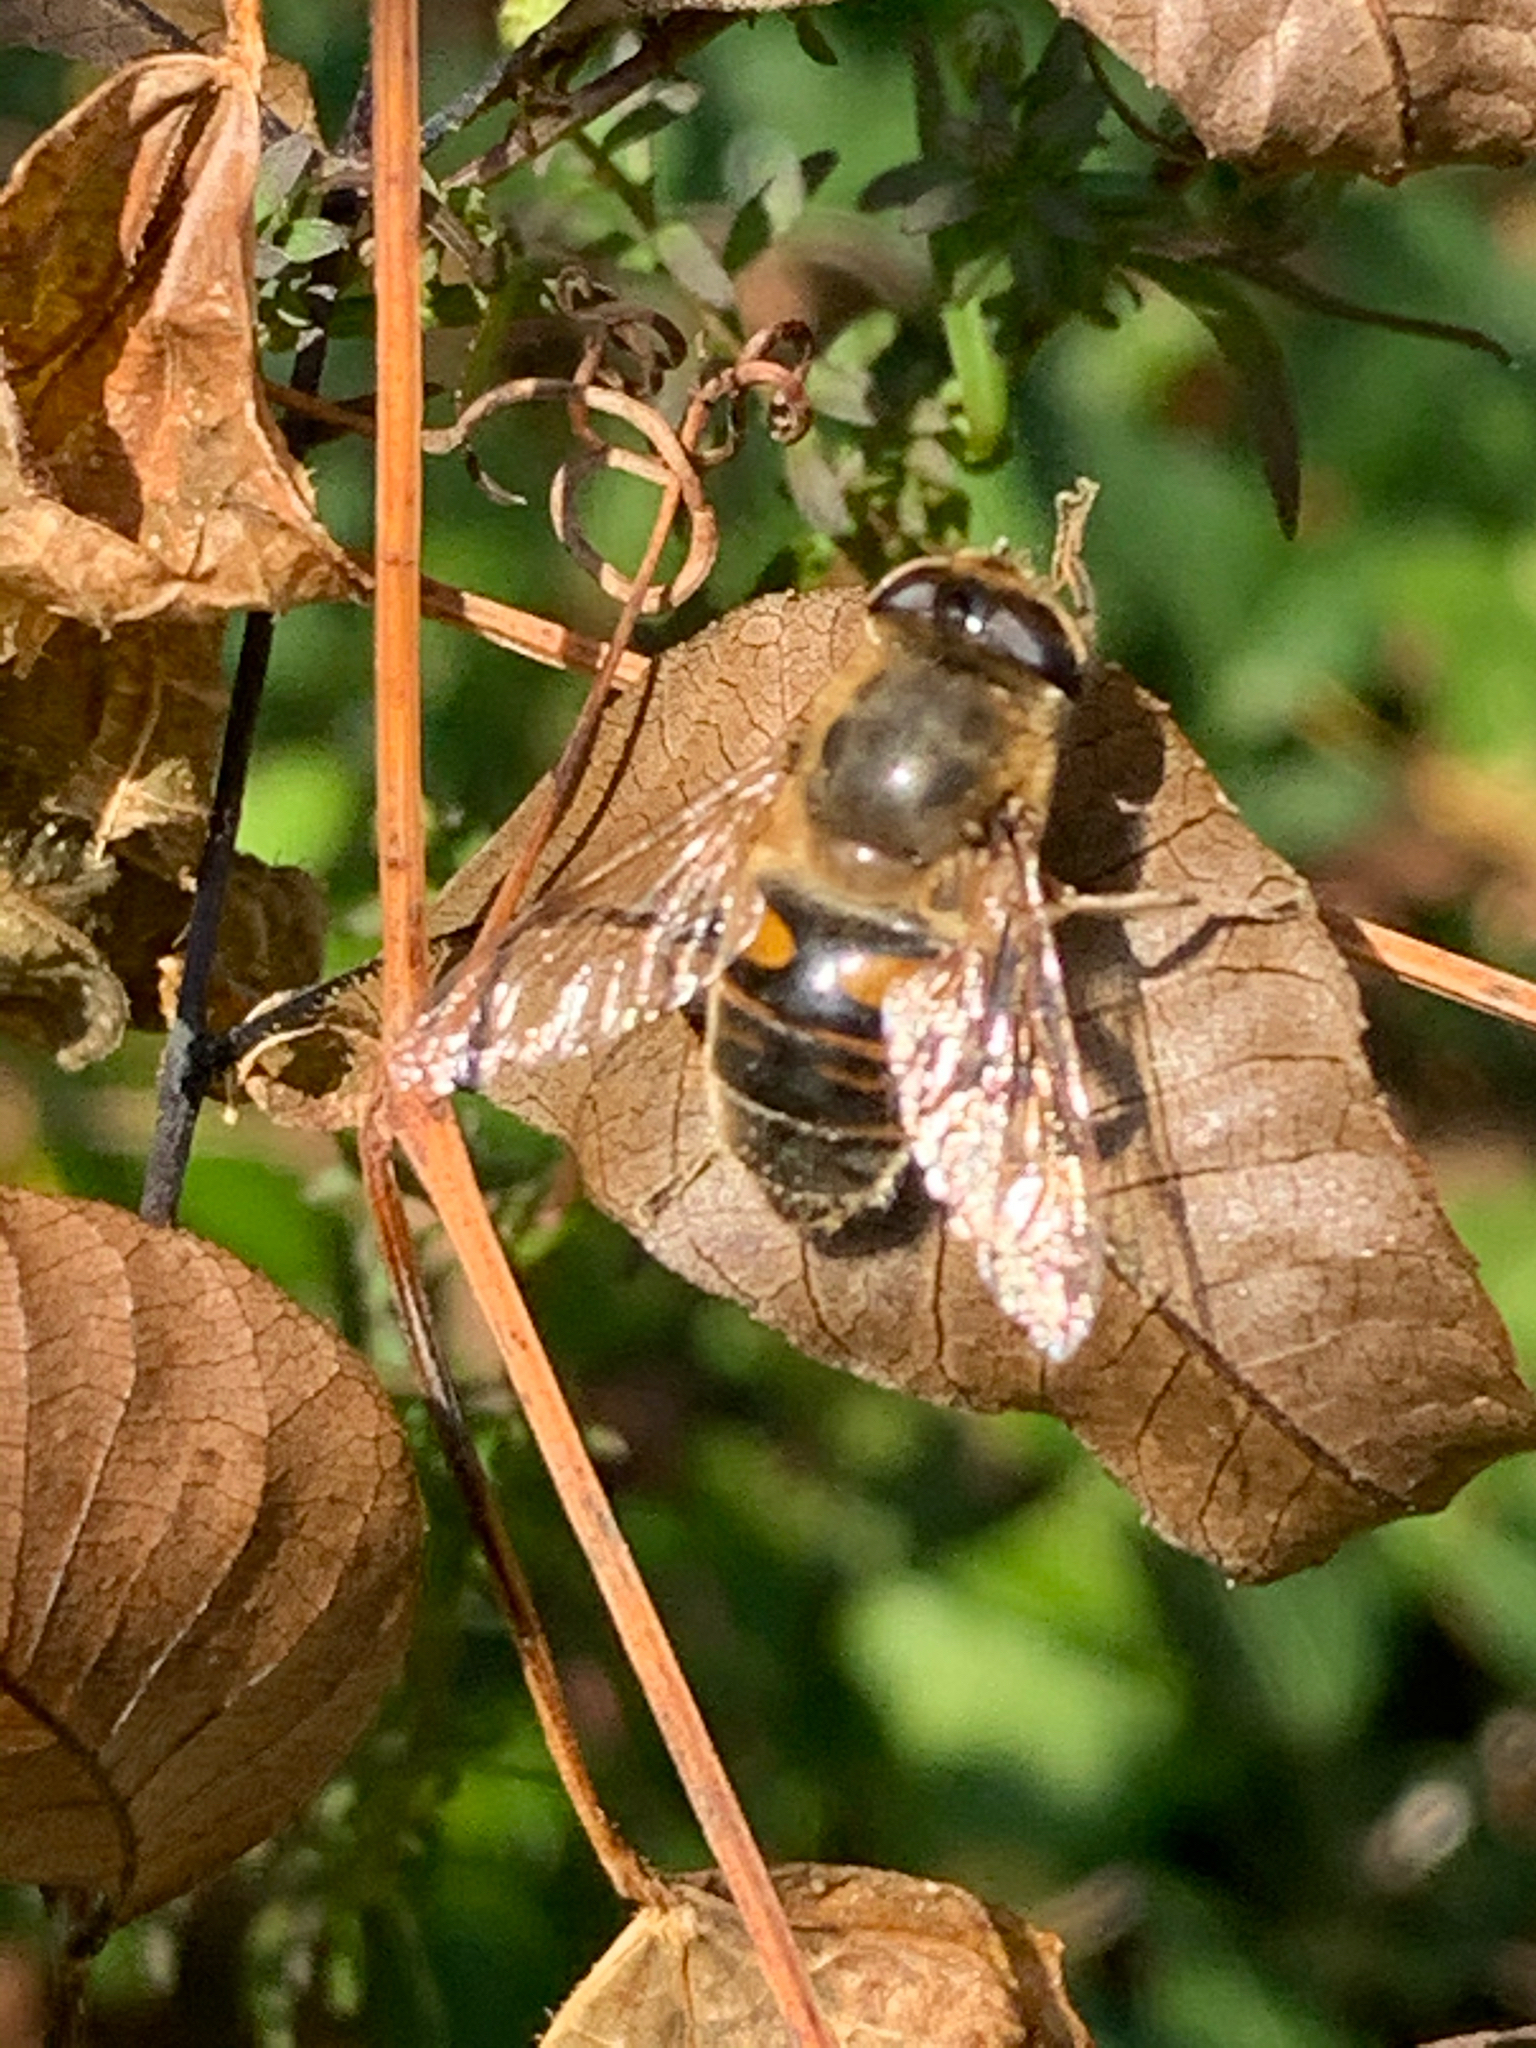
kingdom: Animalia
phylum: Arthropoda
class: Insecta
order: Diptera
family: Syrphidae
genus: Eristalis
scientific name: Eristalis tenax
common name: Drone fly
